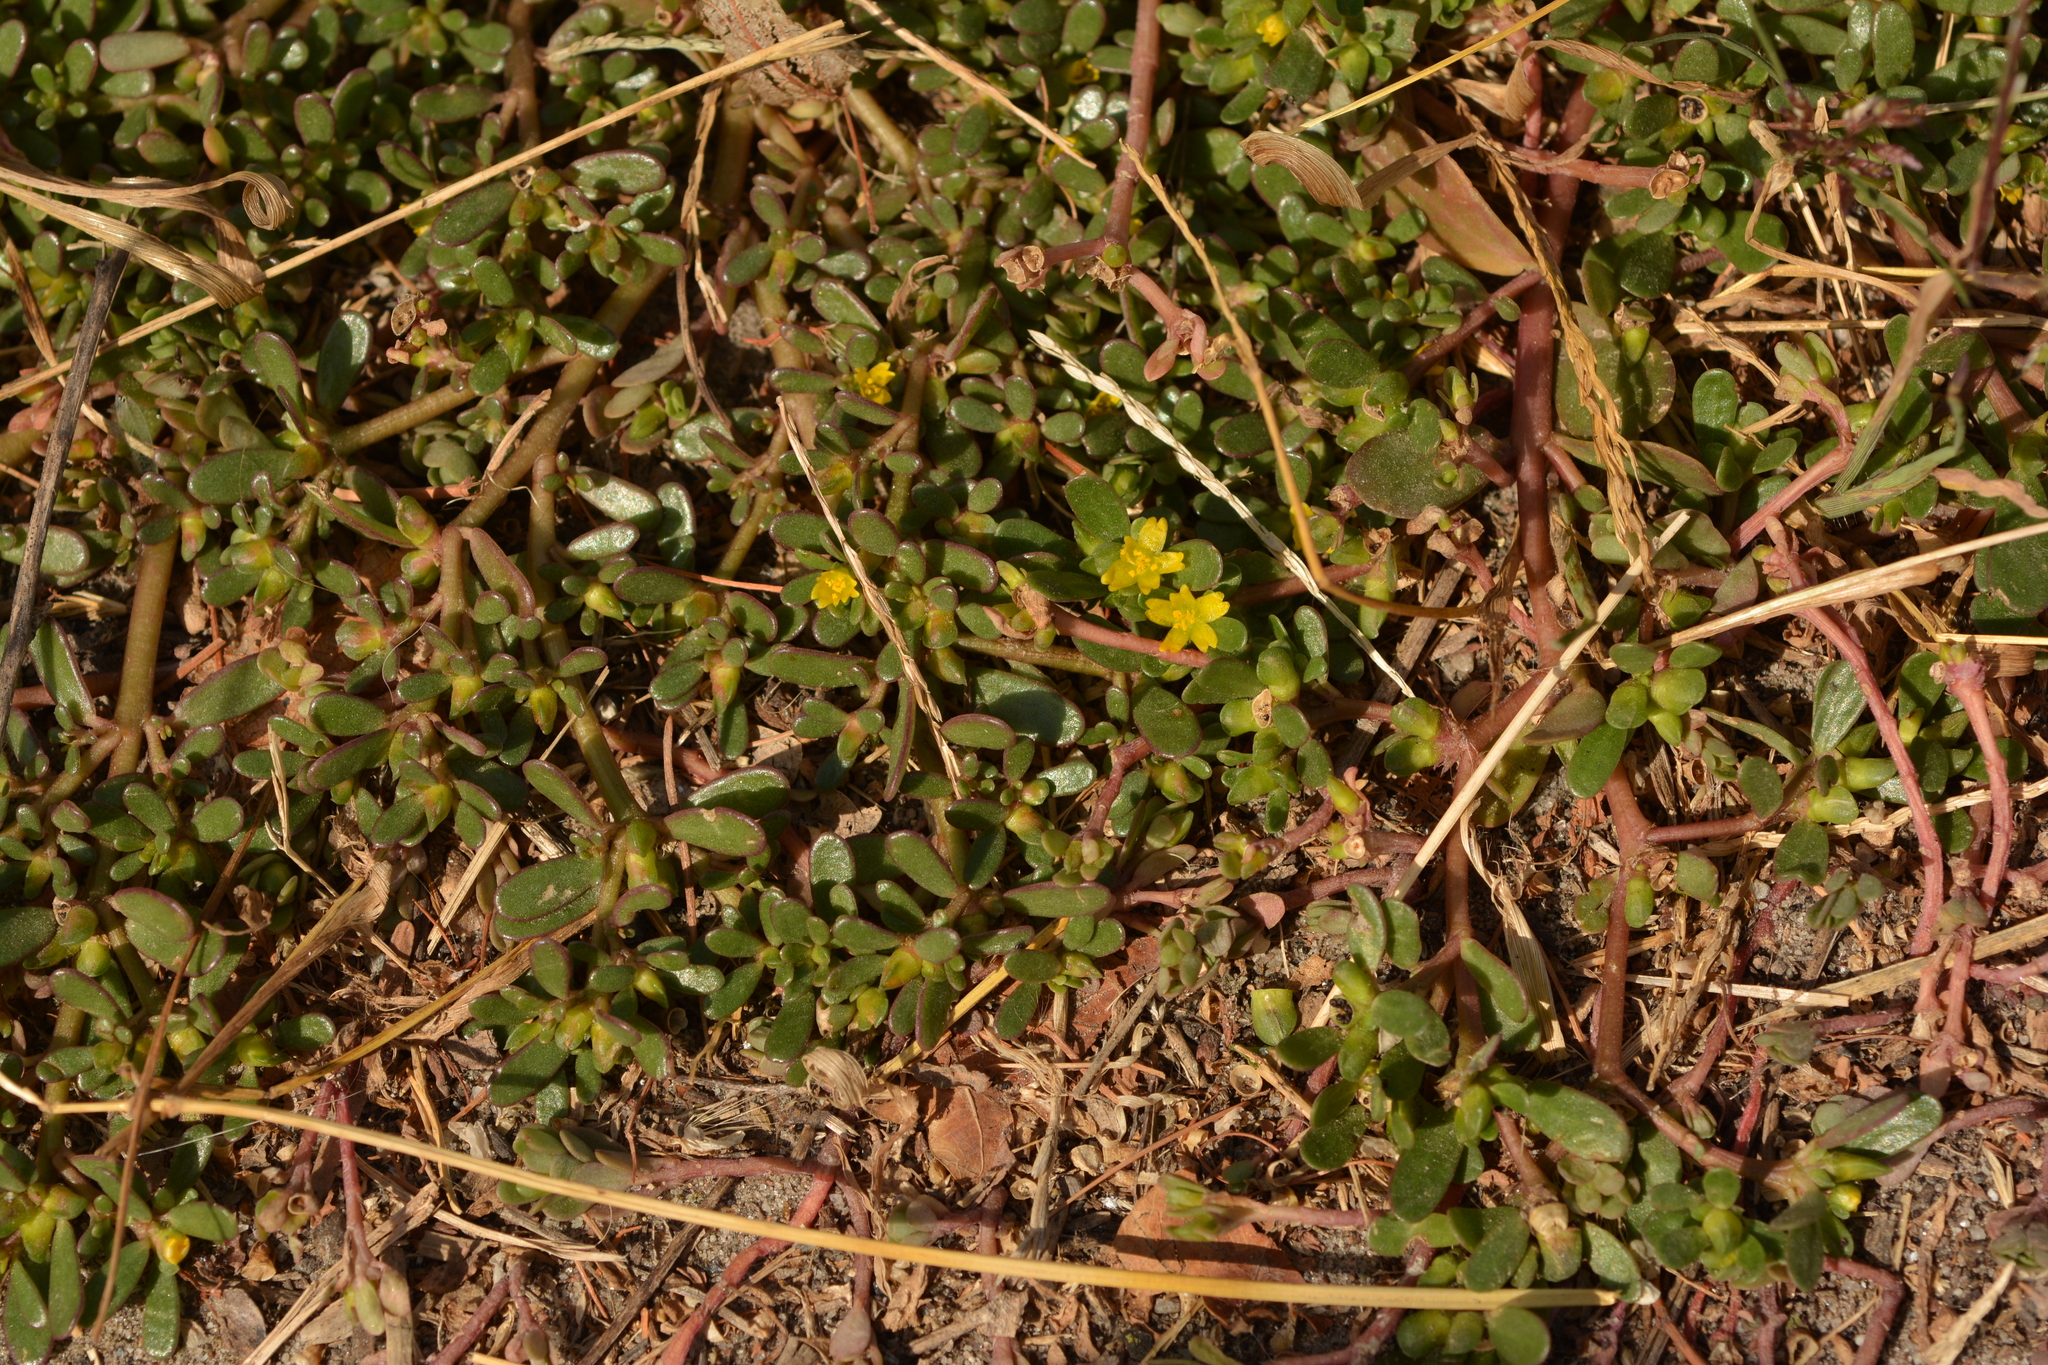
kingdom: Plantae
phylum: Tracheophyta
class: Magnoliopsida
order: Caryophyllales
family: Portulacaceae
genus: Portulaca
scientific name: Portulaca oleracea
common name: Common purslane
